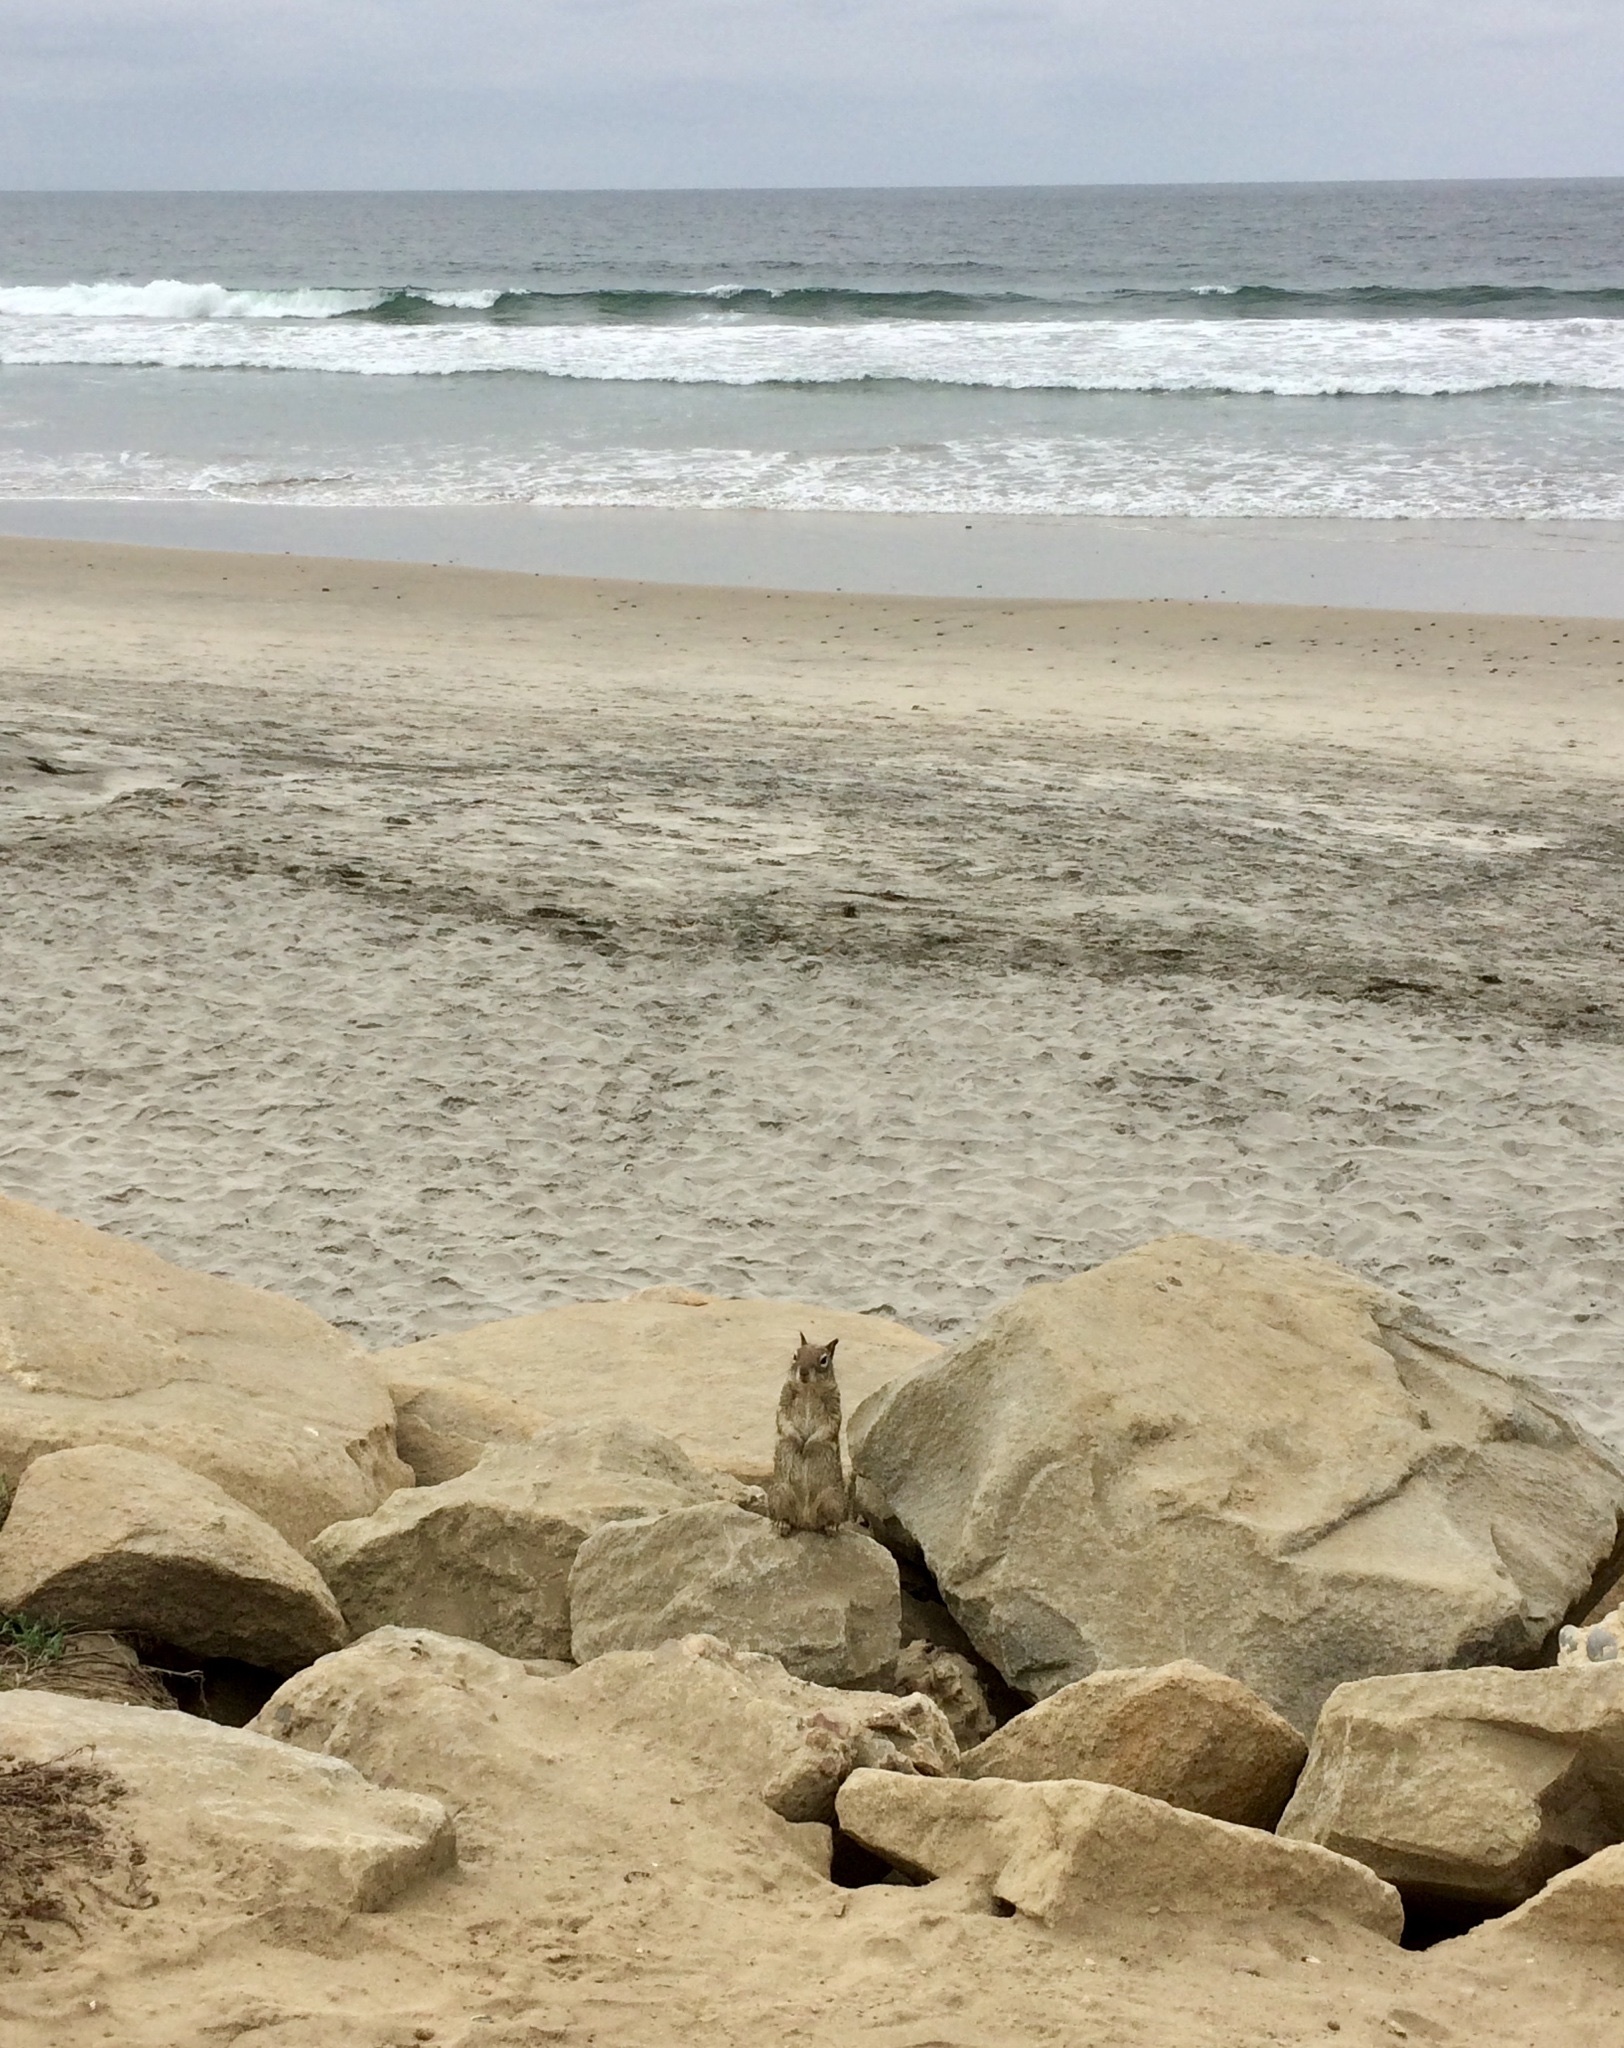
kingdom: Animalia
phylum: Chordata
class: Mammalia
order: Rodentia
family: Sciuridae
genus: Otospermophilus
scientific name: Otospermophilus beecheyi
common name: California ground squirrel
